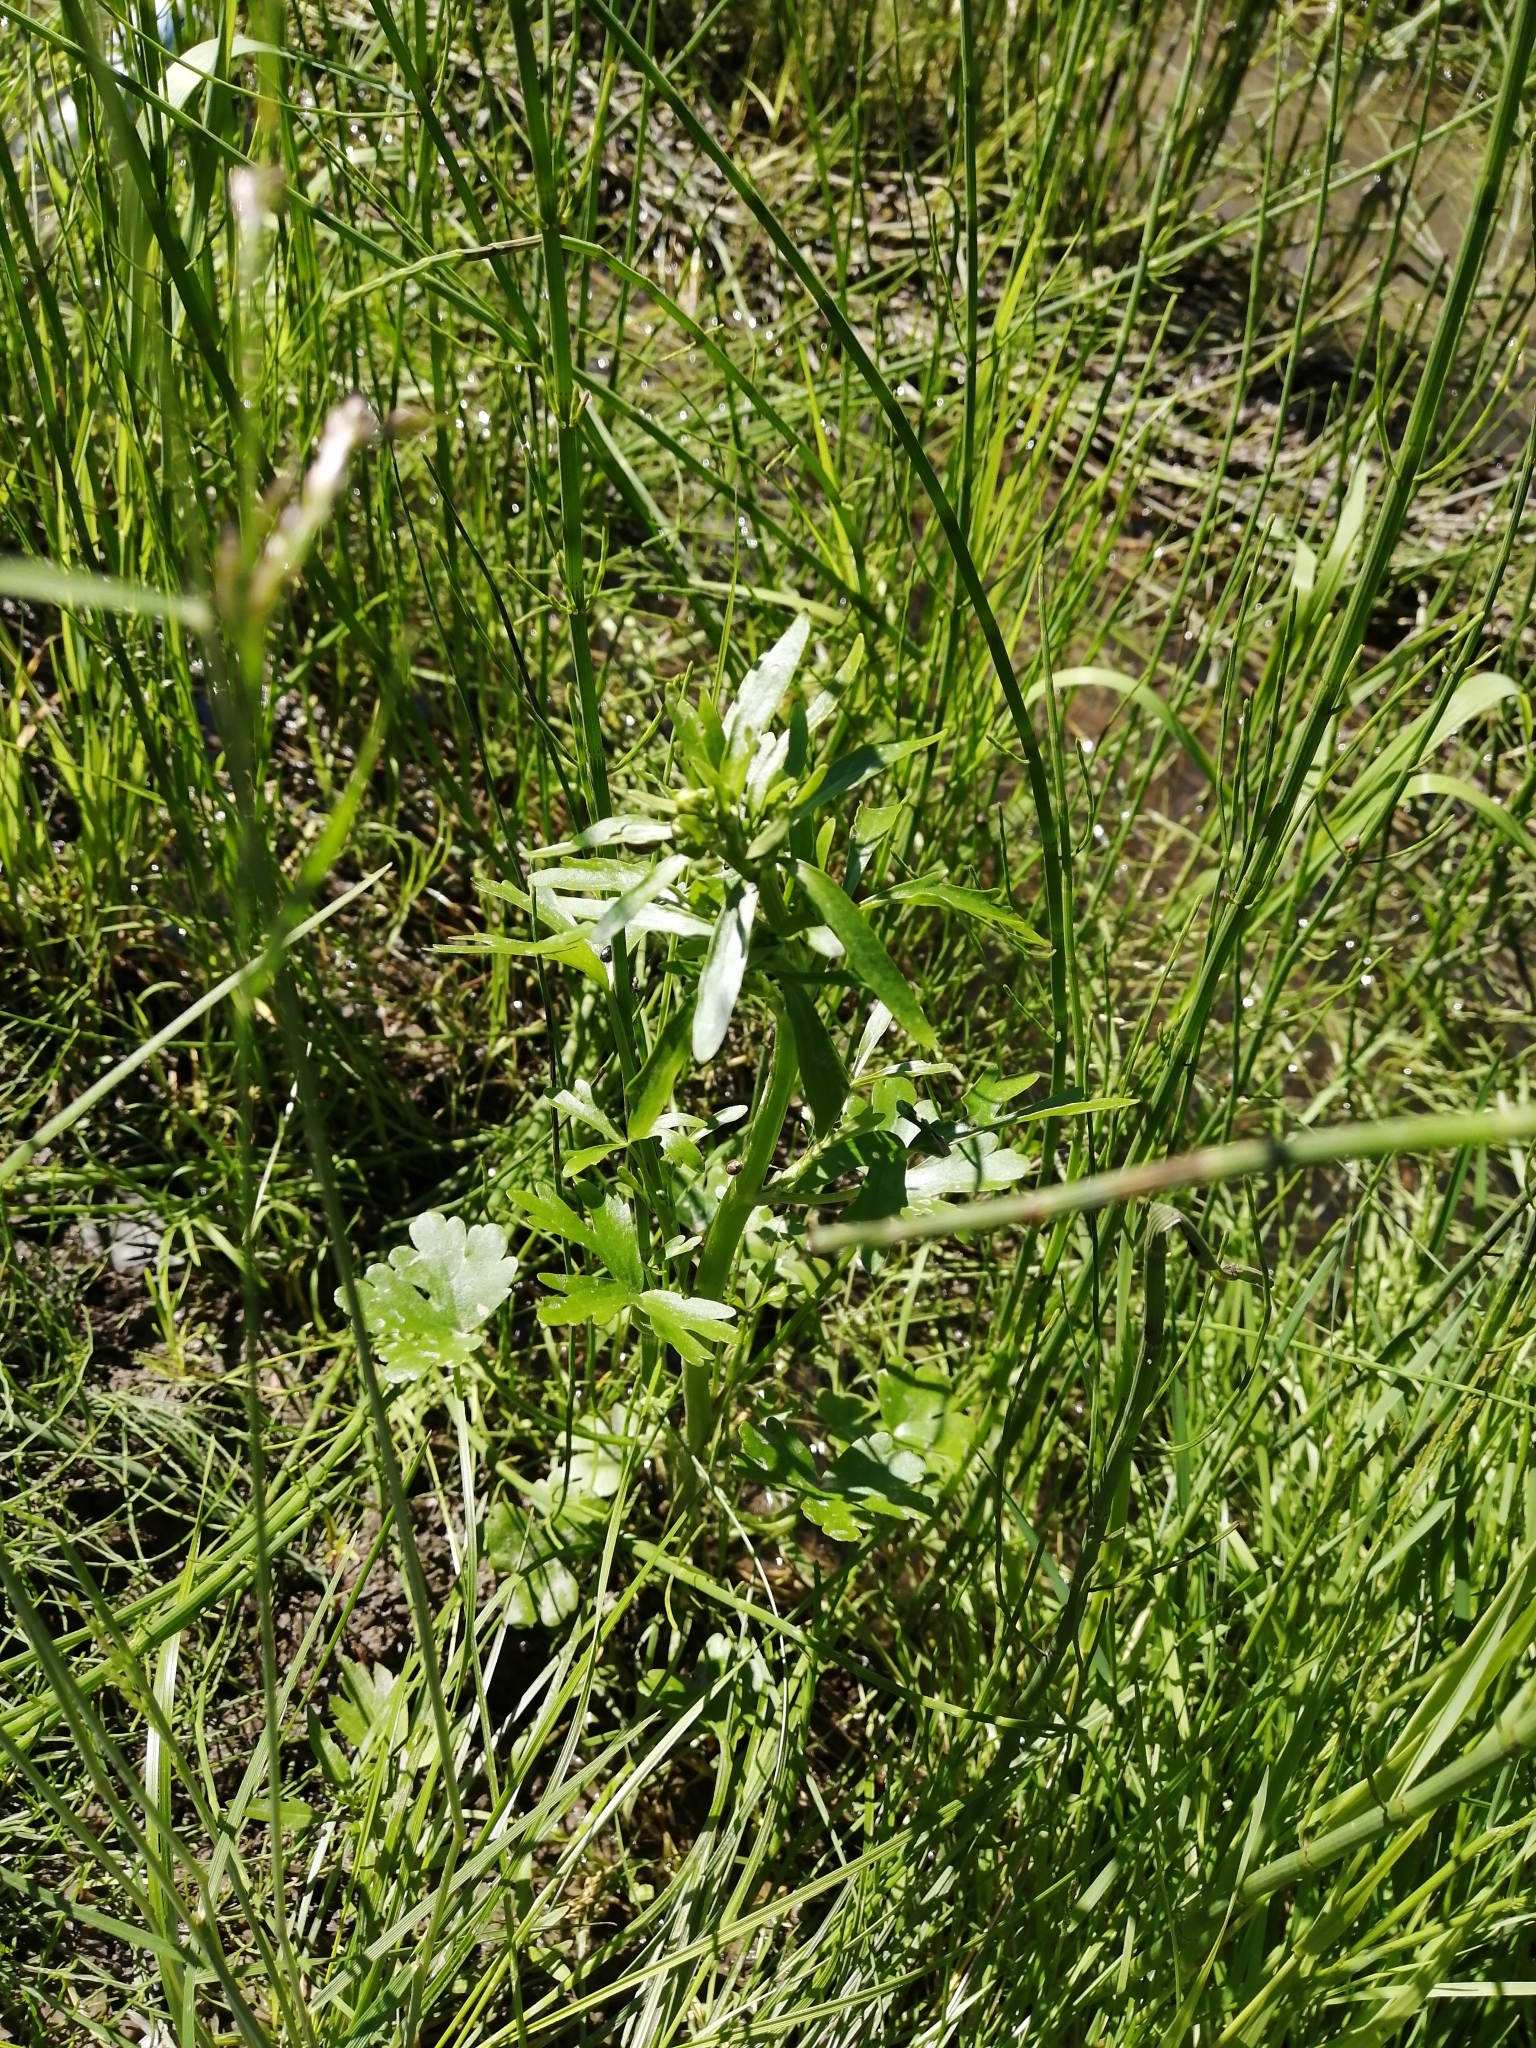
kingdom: Plantae
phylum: Tracheophyta
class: Magnoliopsida
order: Ranunculales
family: Ranunculaceae
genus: Ranunculus
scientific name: Ranunculus sceleratus
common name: Celery-leaved buttercup
